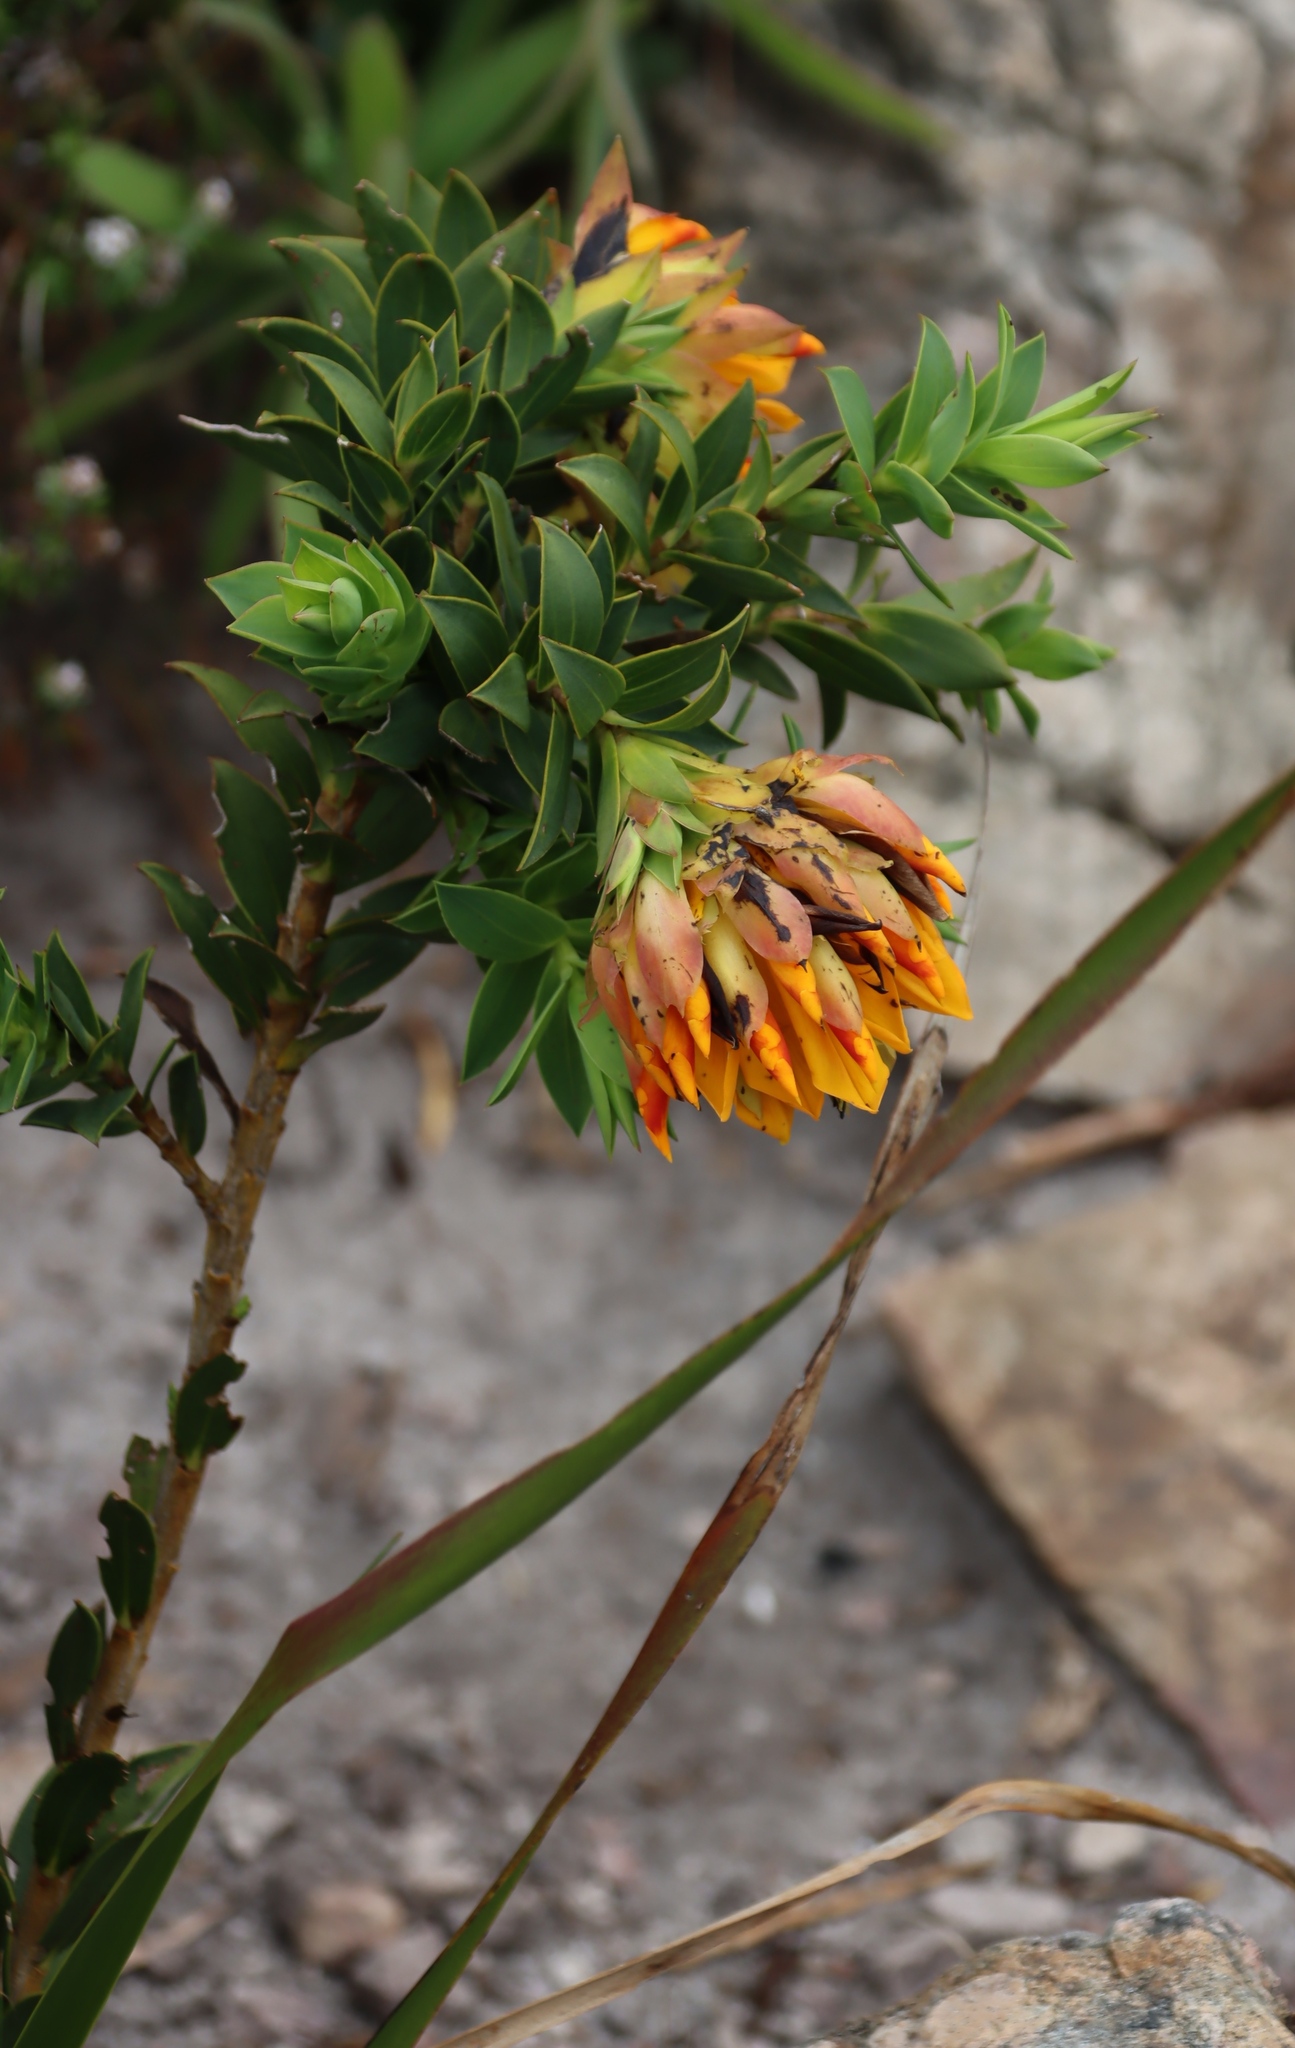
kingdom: Plantae
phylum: Tracheophyta
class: Magnoliopsida
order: Fabales
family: Fabaceae
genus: Liparia
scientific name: Liparia splendens
